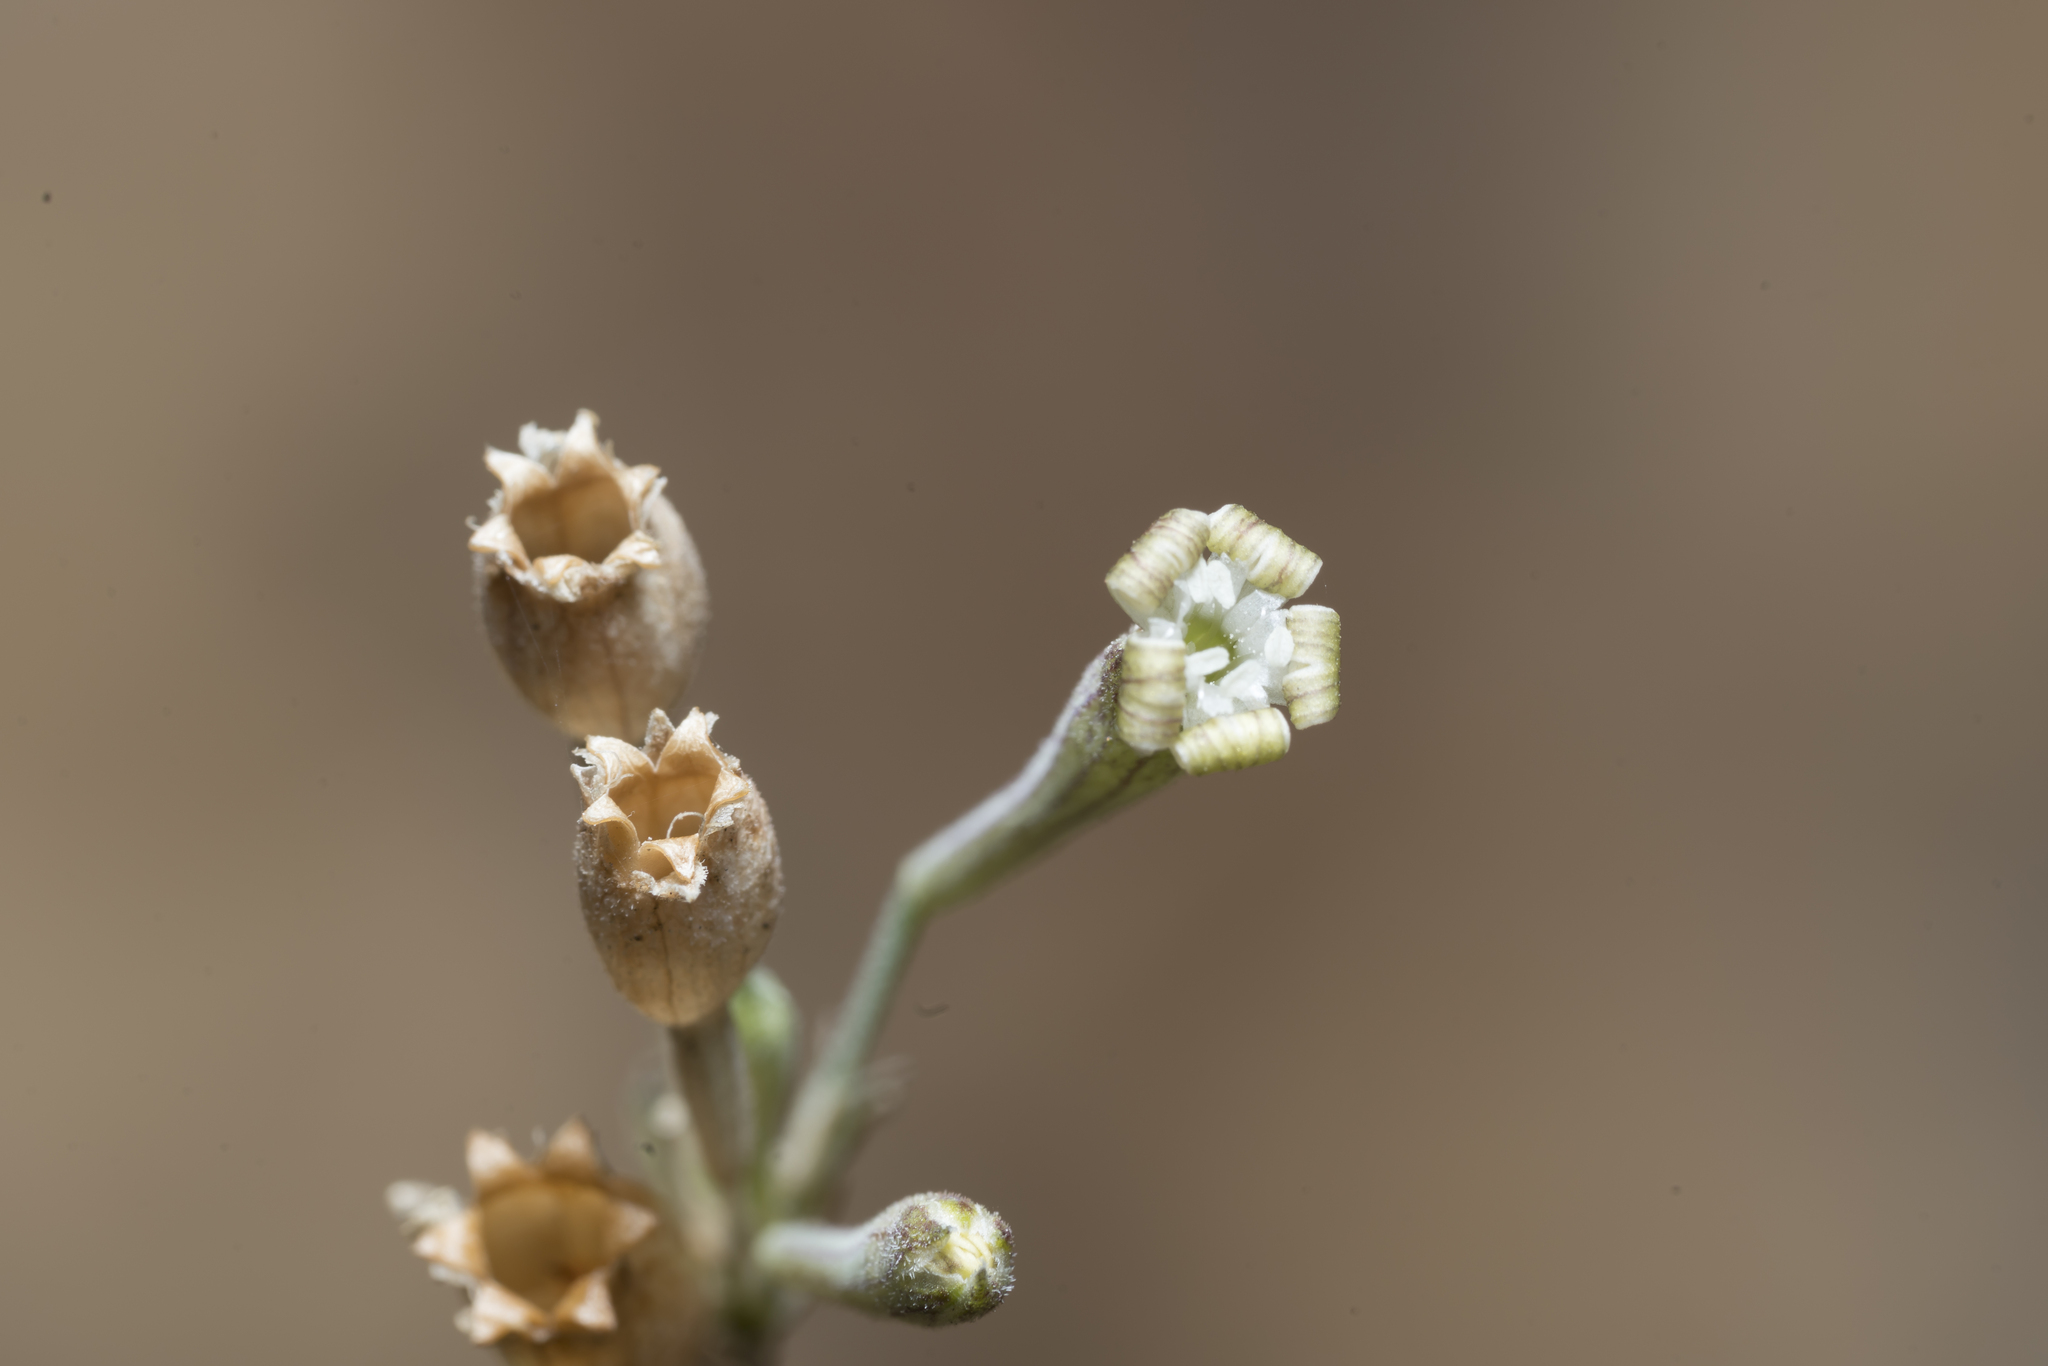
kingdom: Plantae
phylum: Tracheophyta
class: Magnoliopsida
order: Caryophyllales
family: Caryophyllaceae
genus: Silene
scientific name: Silene echinospermoides
